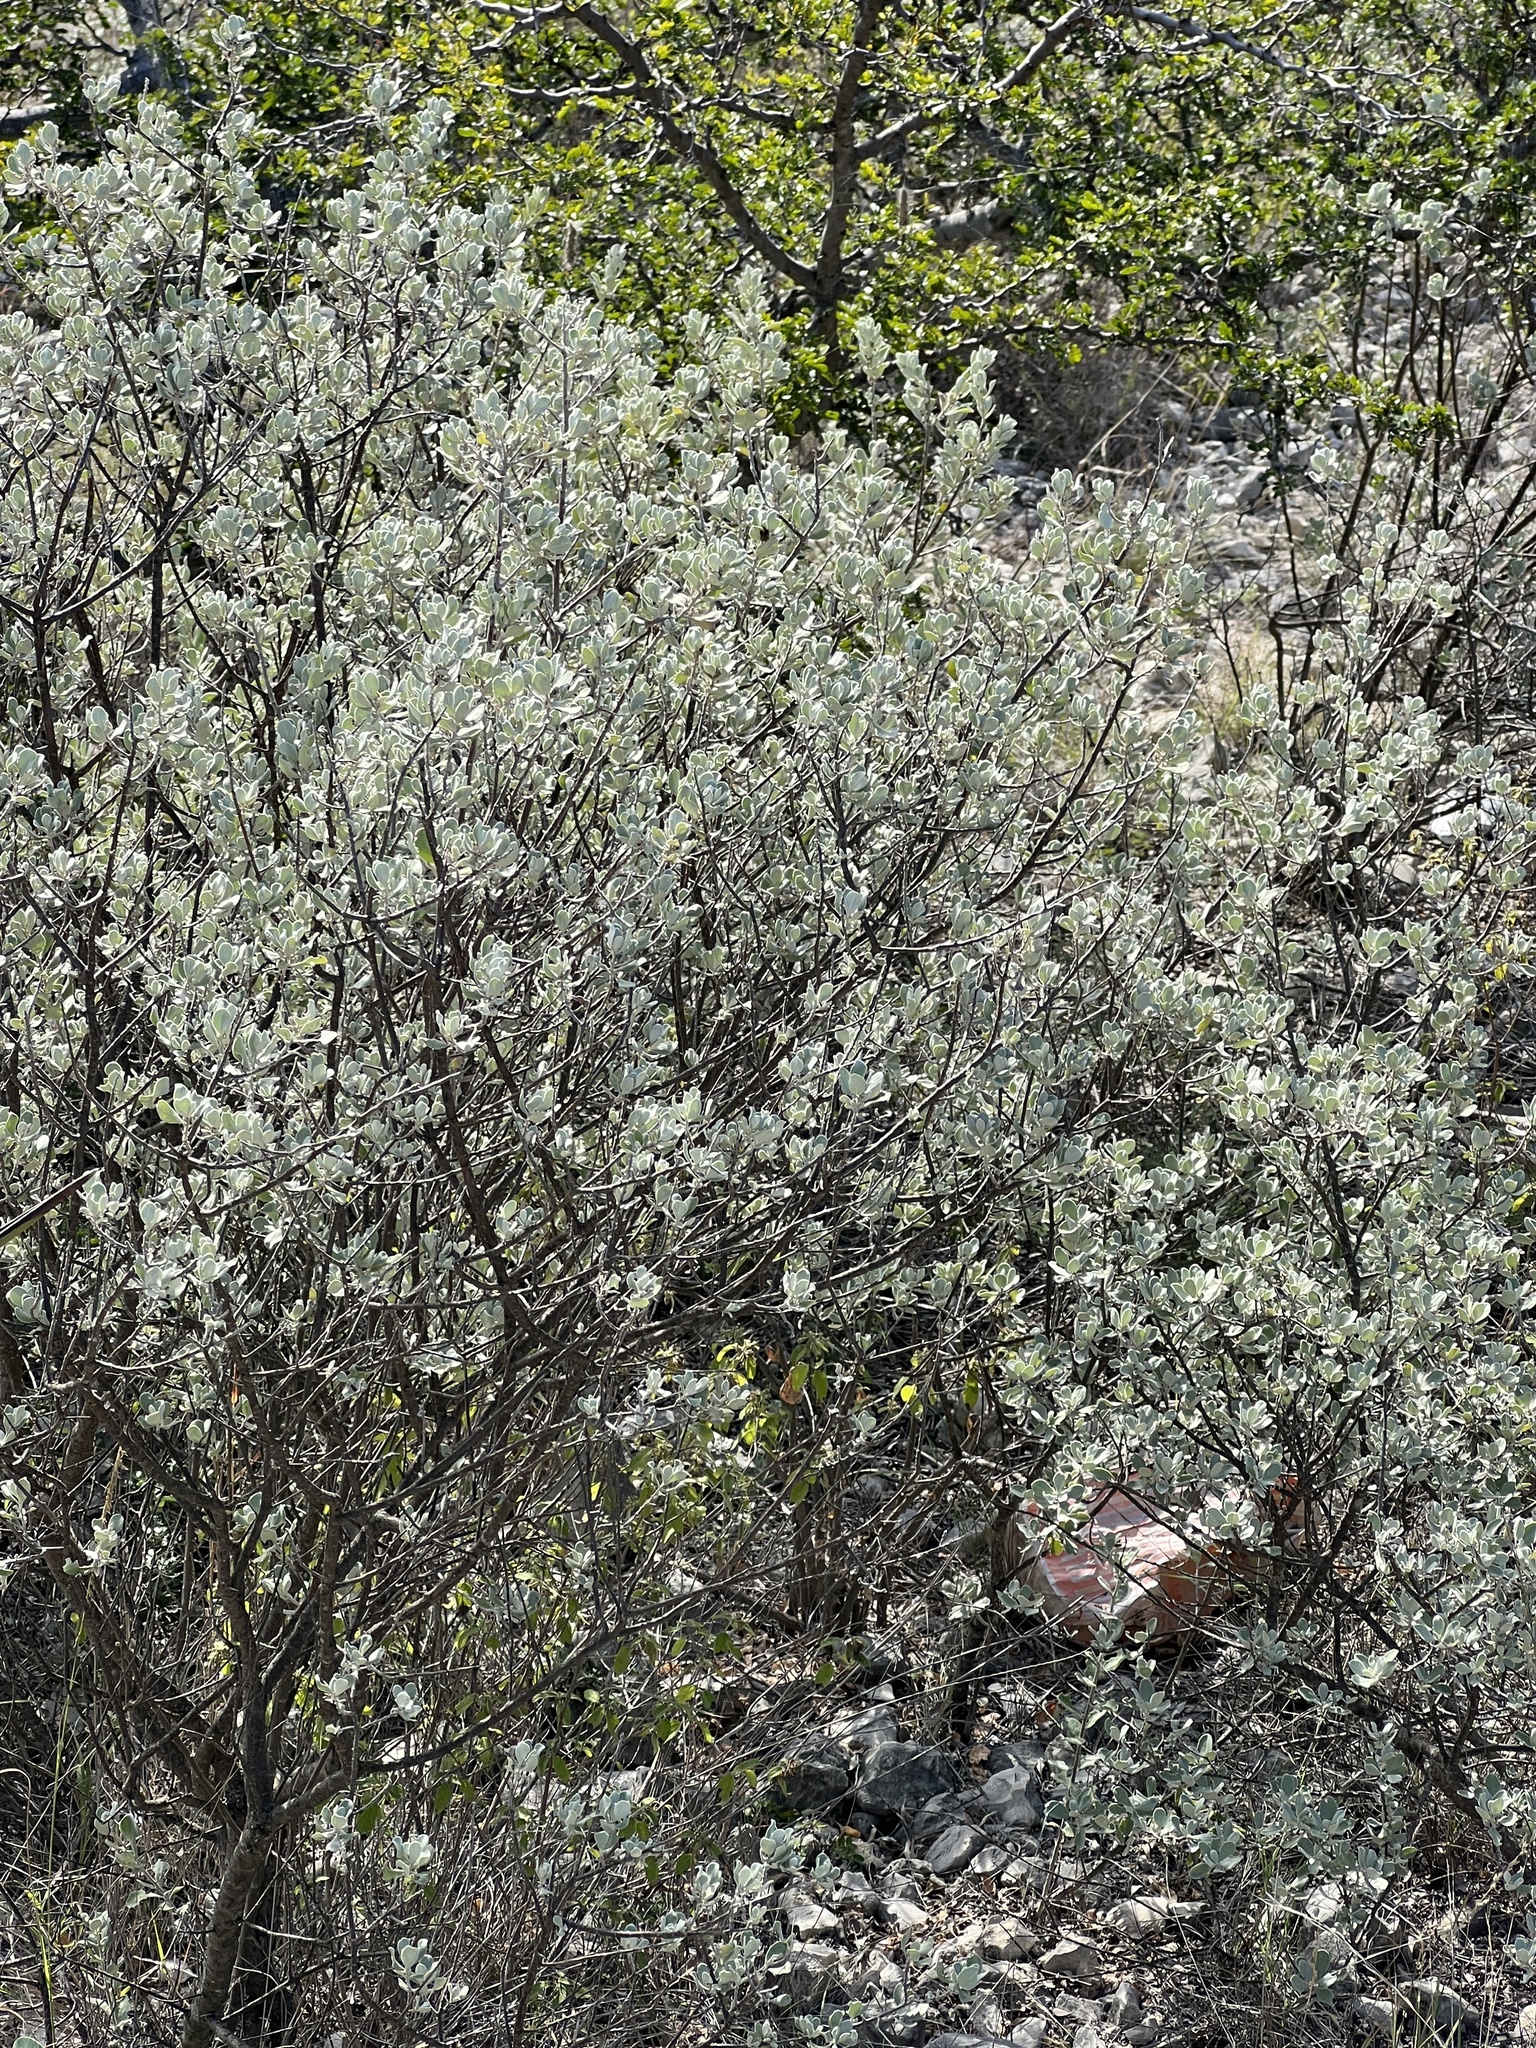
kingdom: Plantae
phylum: Tracheophyta
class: Magnoliopsida
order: Lamiales
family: Scrophulariaceae
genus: Leucophyllum
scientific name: Leucophyllum frutescens
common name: Texas silverleaf
